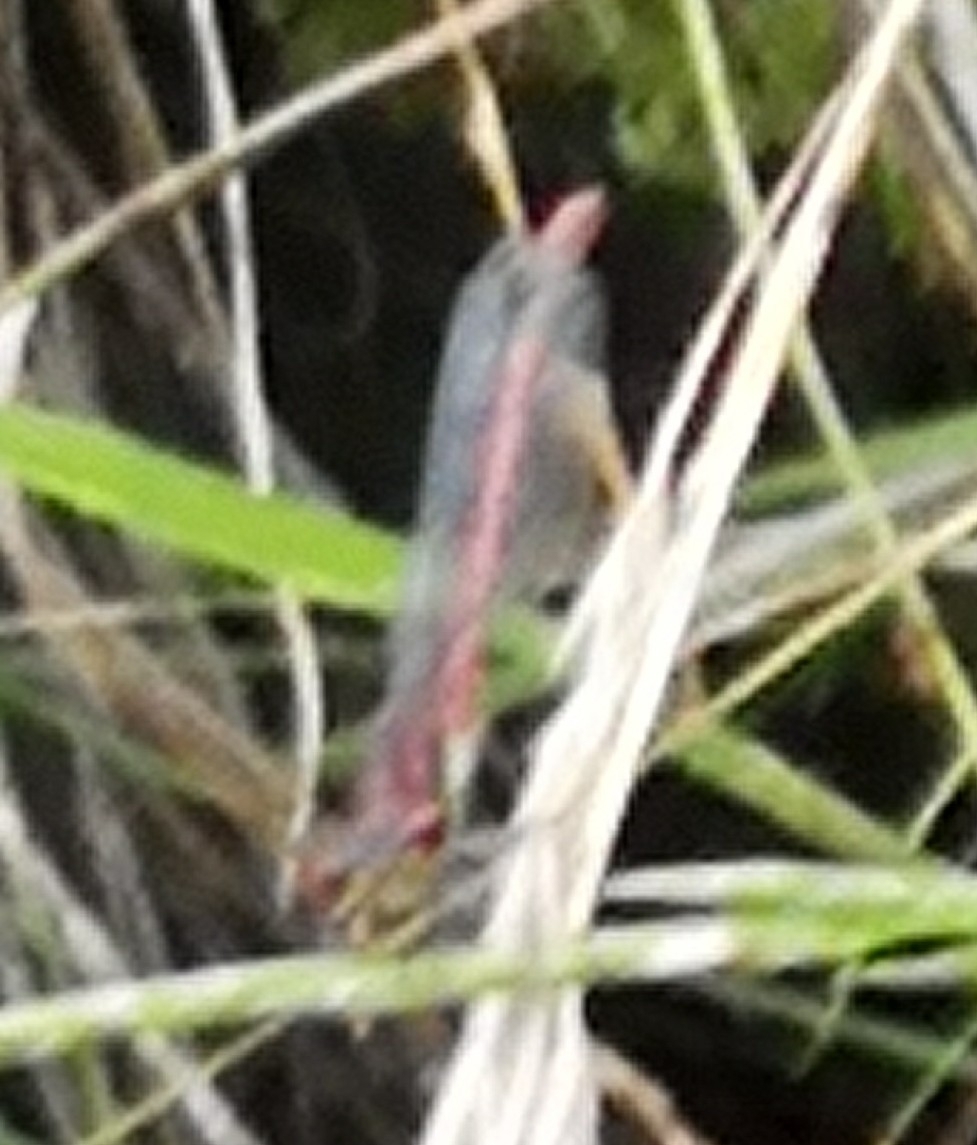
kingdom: Animalia
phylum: Arthropoda
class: Insecta
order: Odonata
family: Coenagrionidae
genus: Pyrrhosoma
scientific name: Pyrrhosoma nymphula
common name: Large red damsel
